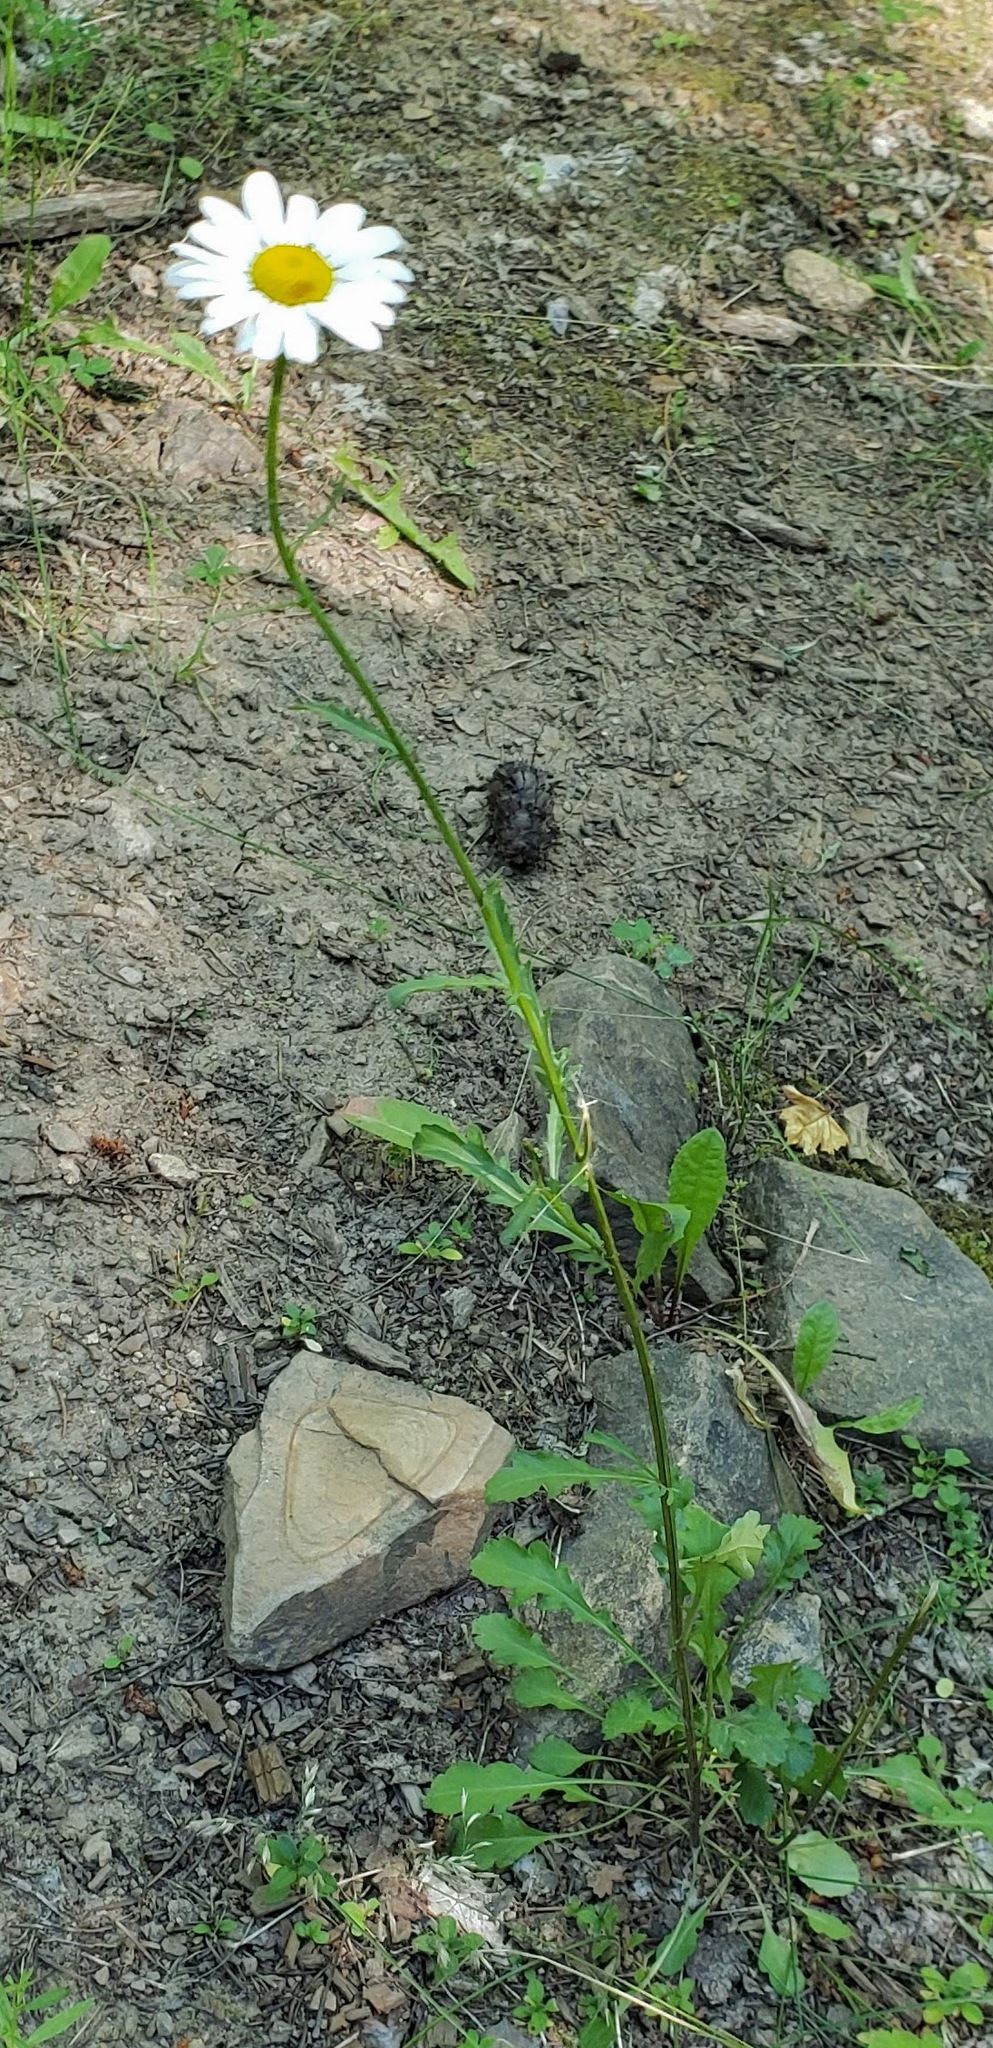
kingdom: Plantae
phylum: Tracheophyta
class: Magnoliopsida
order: Asterales
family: Asteraceae
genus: Leucanthemum
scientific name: Leucanthemum vulgare
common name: Oxeye daisy
